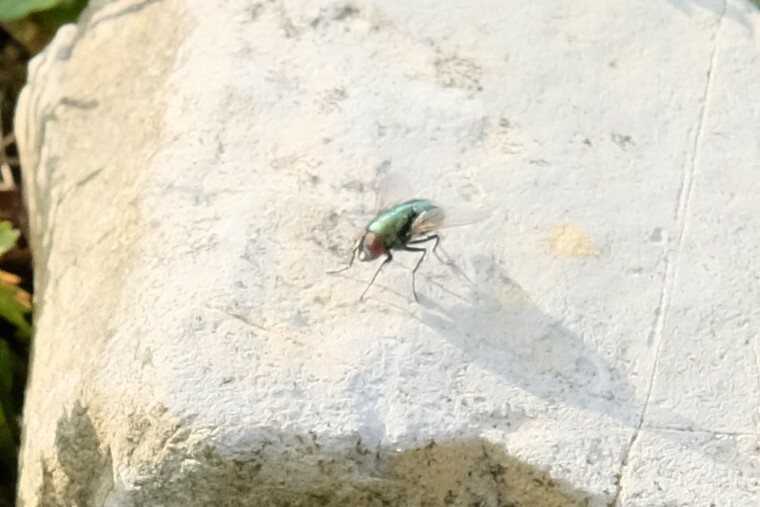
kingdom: Animalia
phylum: Arthropoda
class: Insecta
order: Diptera
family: Calliphoridae
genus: Lucilia
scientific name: Lucilia
